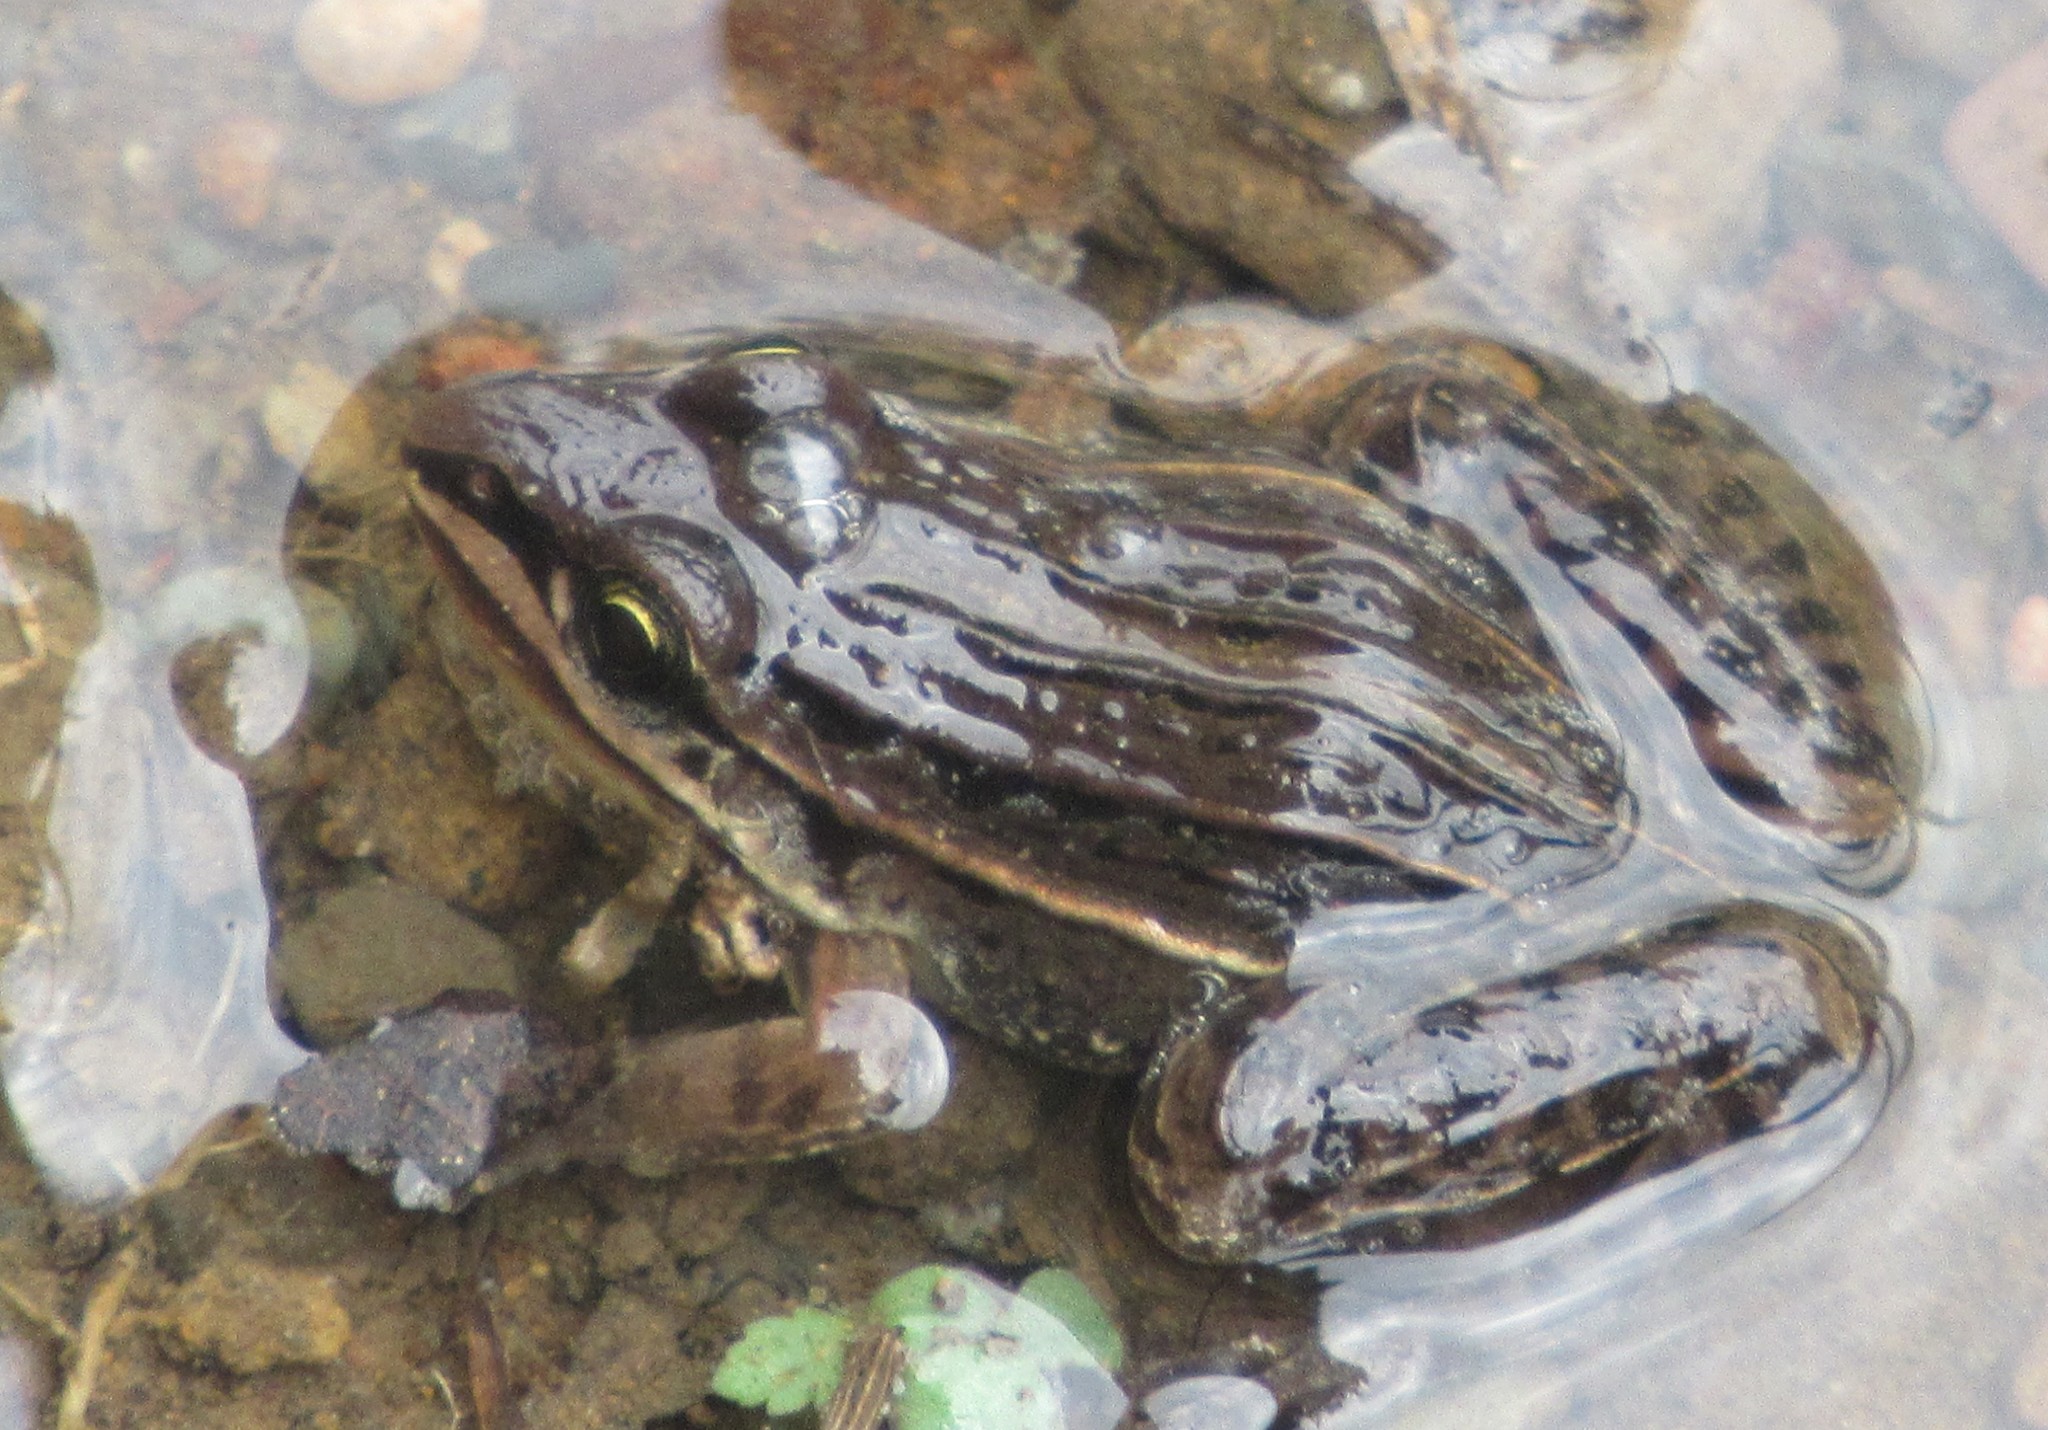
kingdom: Animalia
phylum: Chordata
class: Amphibia
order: Anura
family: Leptodactylidae
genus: Leptodactylus
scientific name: Leptodactylus gracilis
